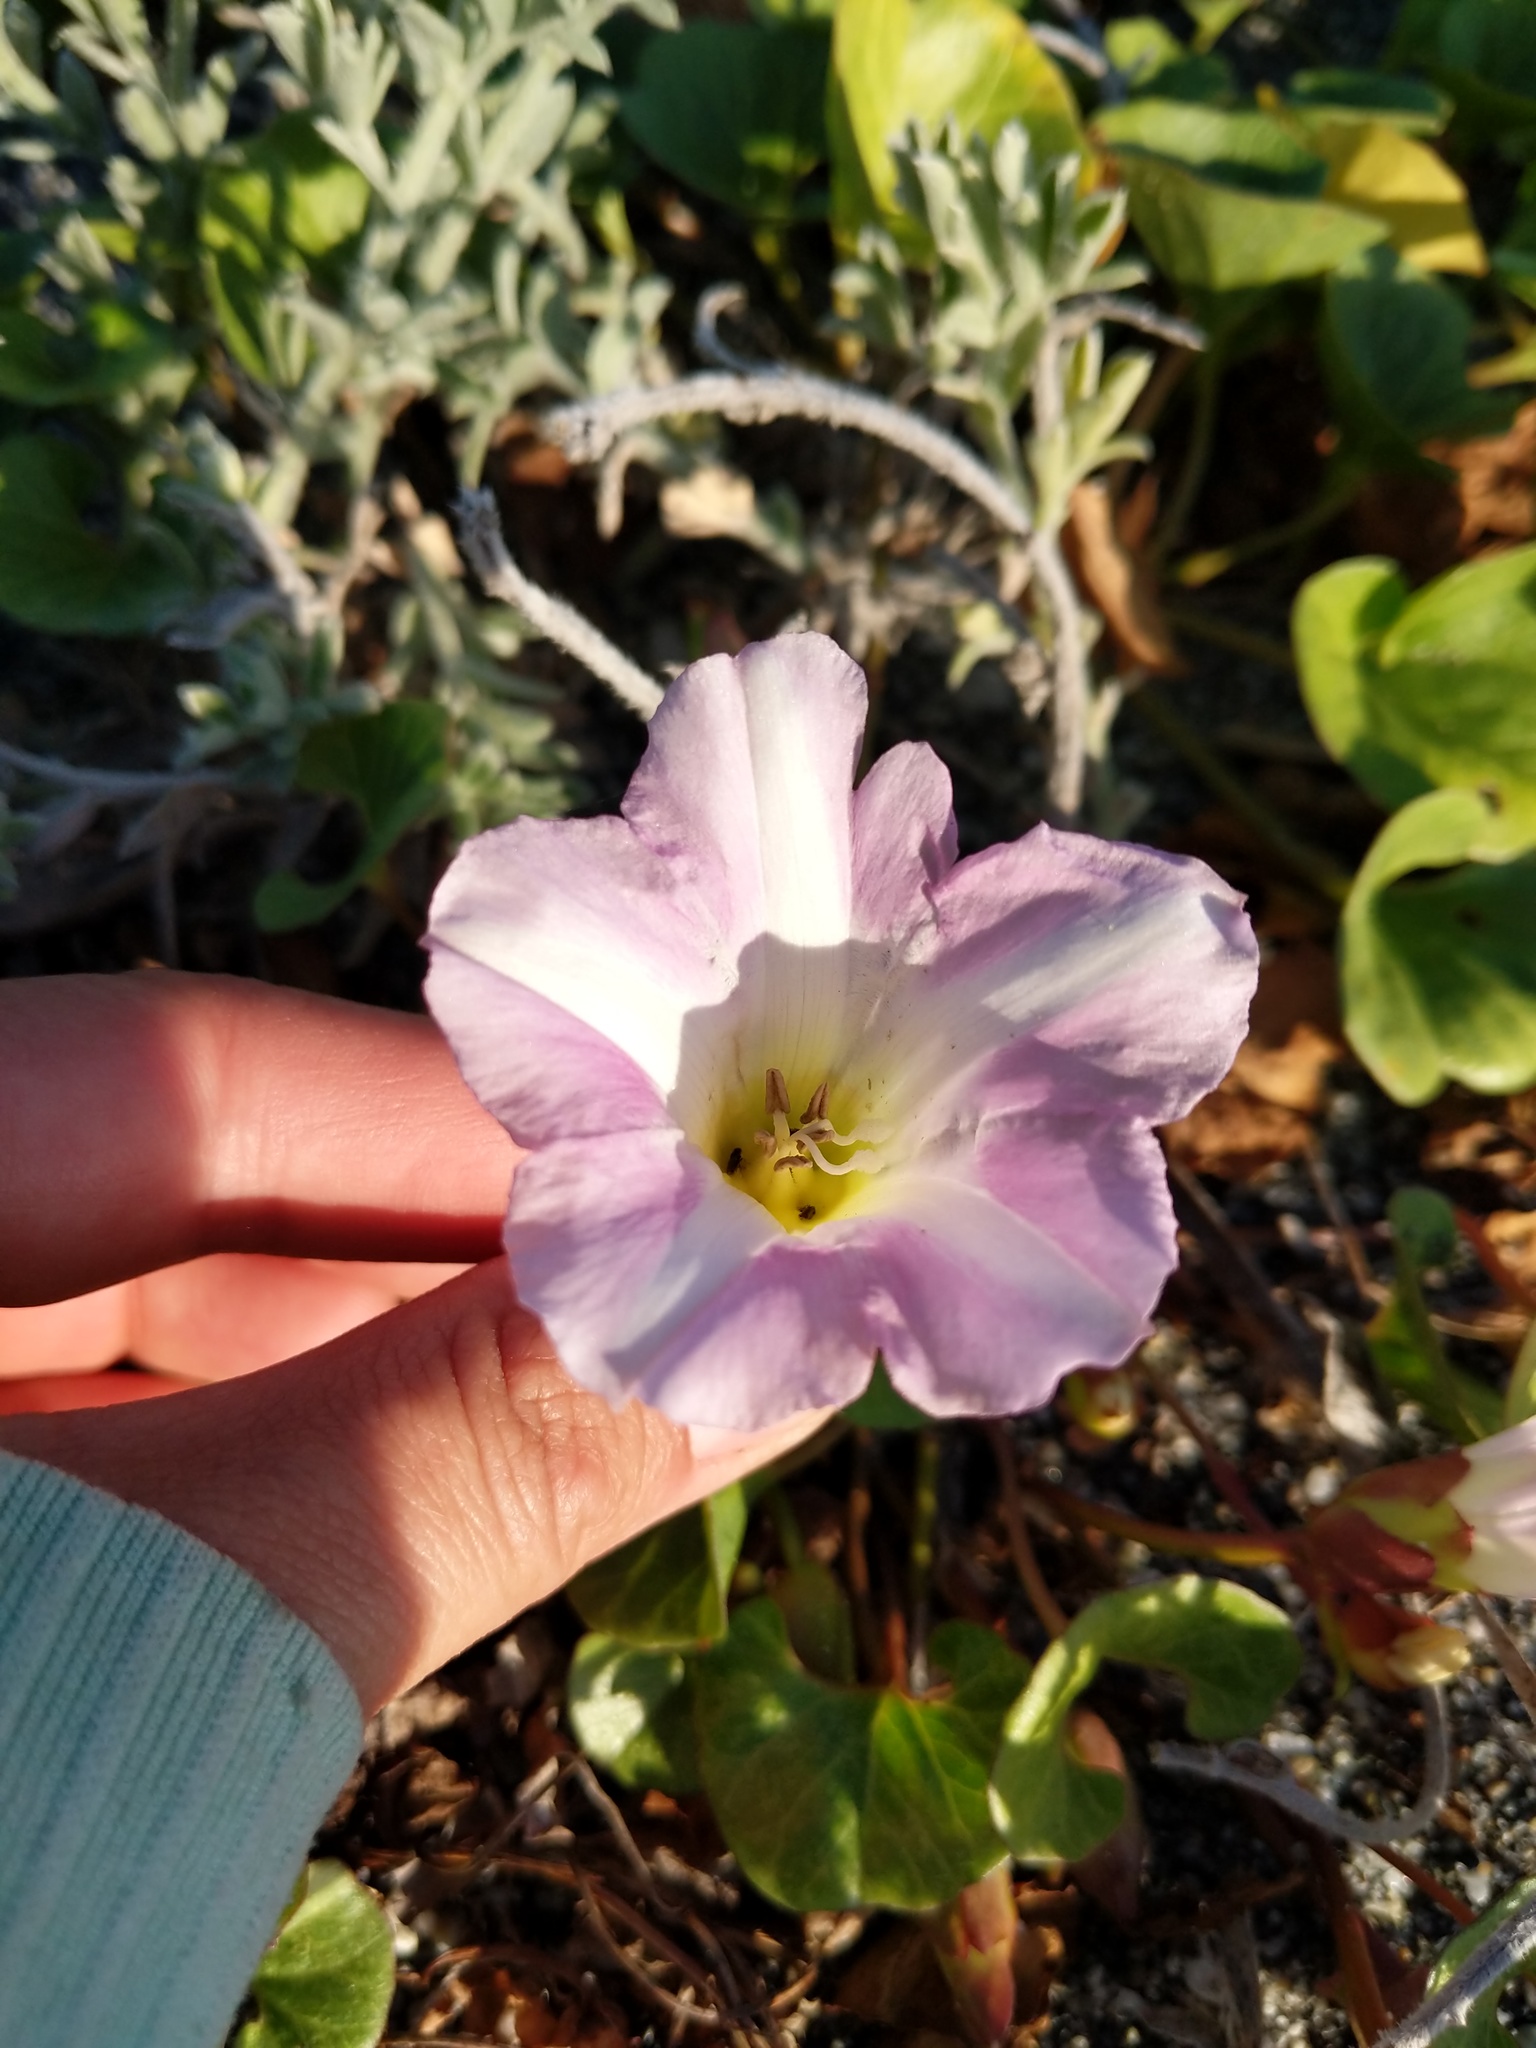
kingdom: Plantae
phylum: Tracheophyta
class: Magnoliopsida
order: Solanales
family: Convolvulaceae
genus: Calystegia
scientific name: Calystegia soldanella
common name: Sea bindweed
